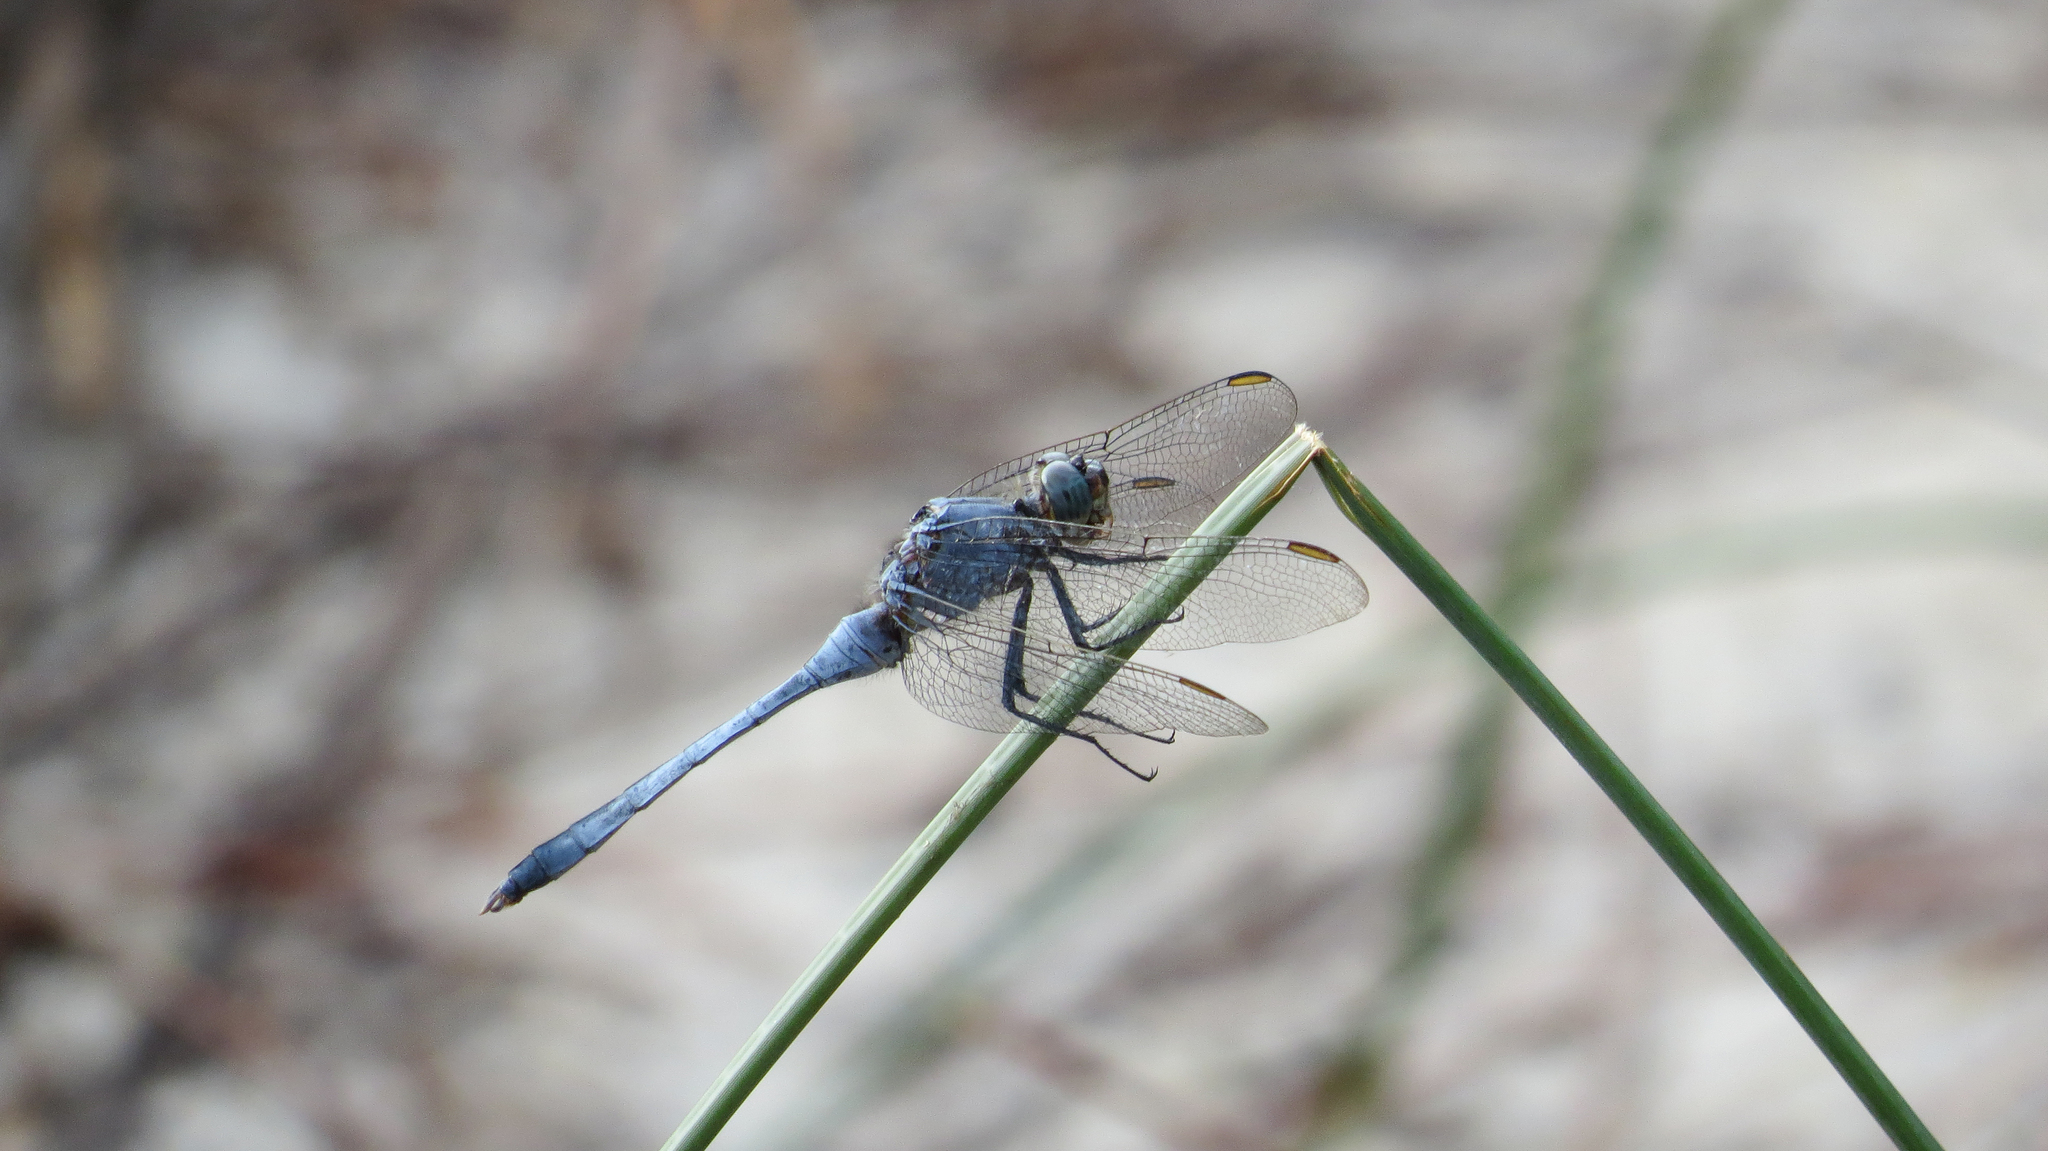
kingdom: Animalia
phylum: Arthropoda
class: Insecta
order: Odonata
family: Libellulidae
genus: Orthetrum
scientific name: Orthetrum boumiera
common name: Brownwater skimmer
